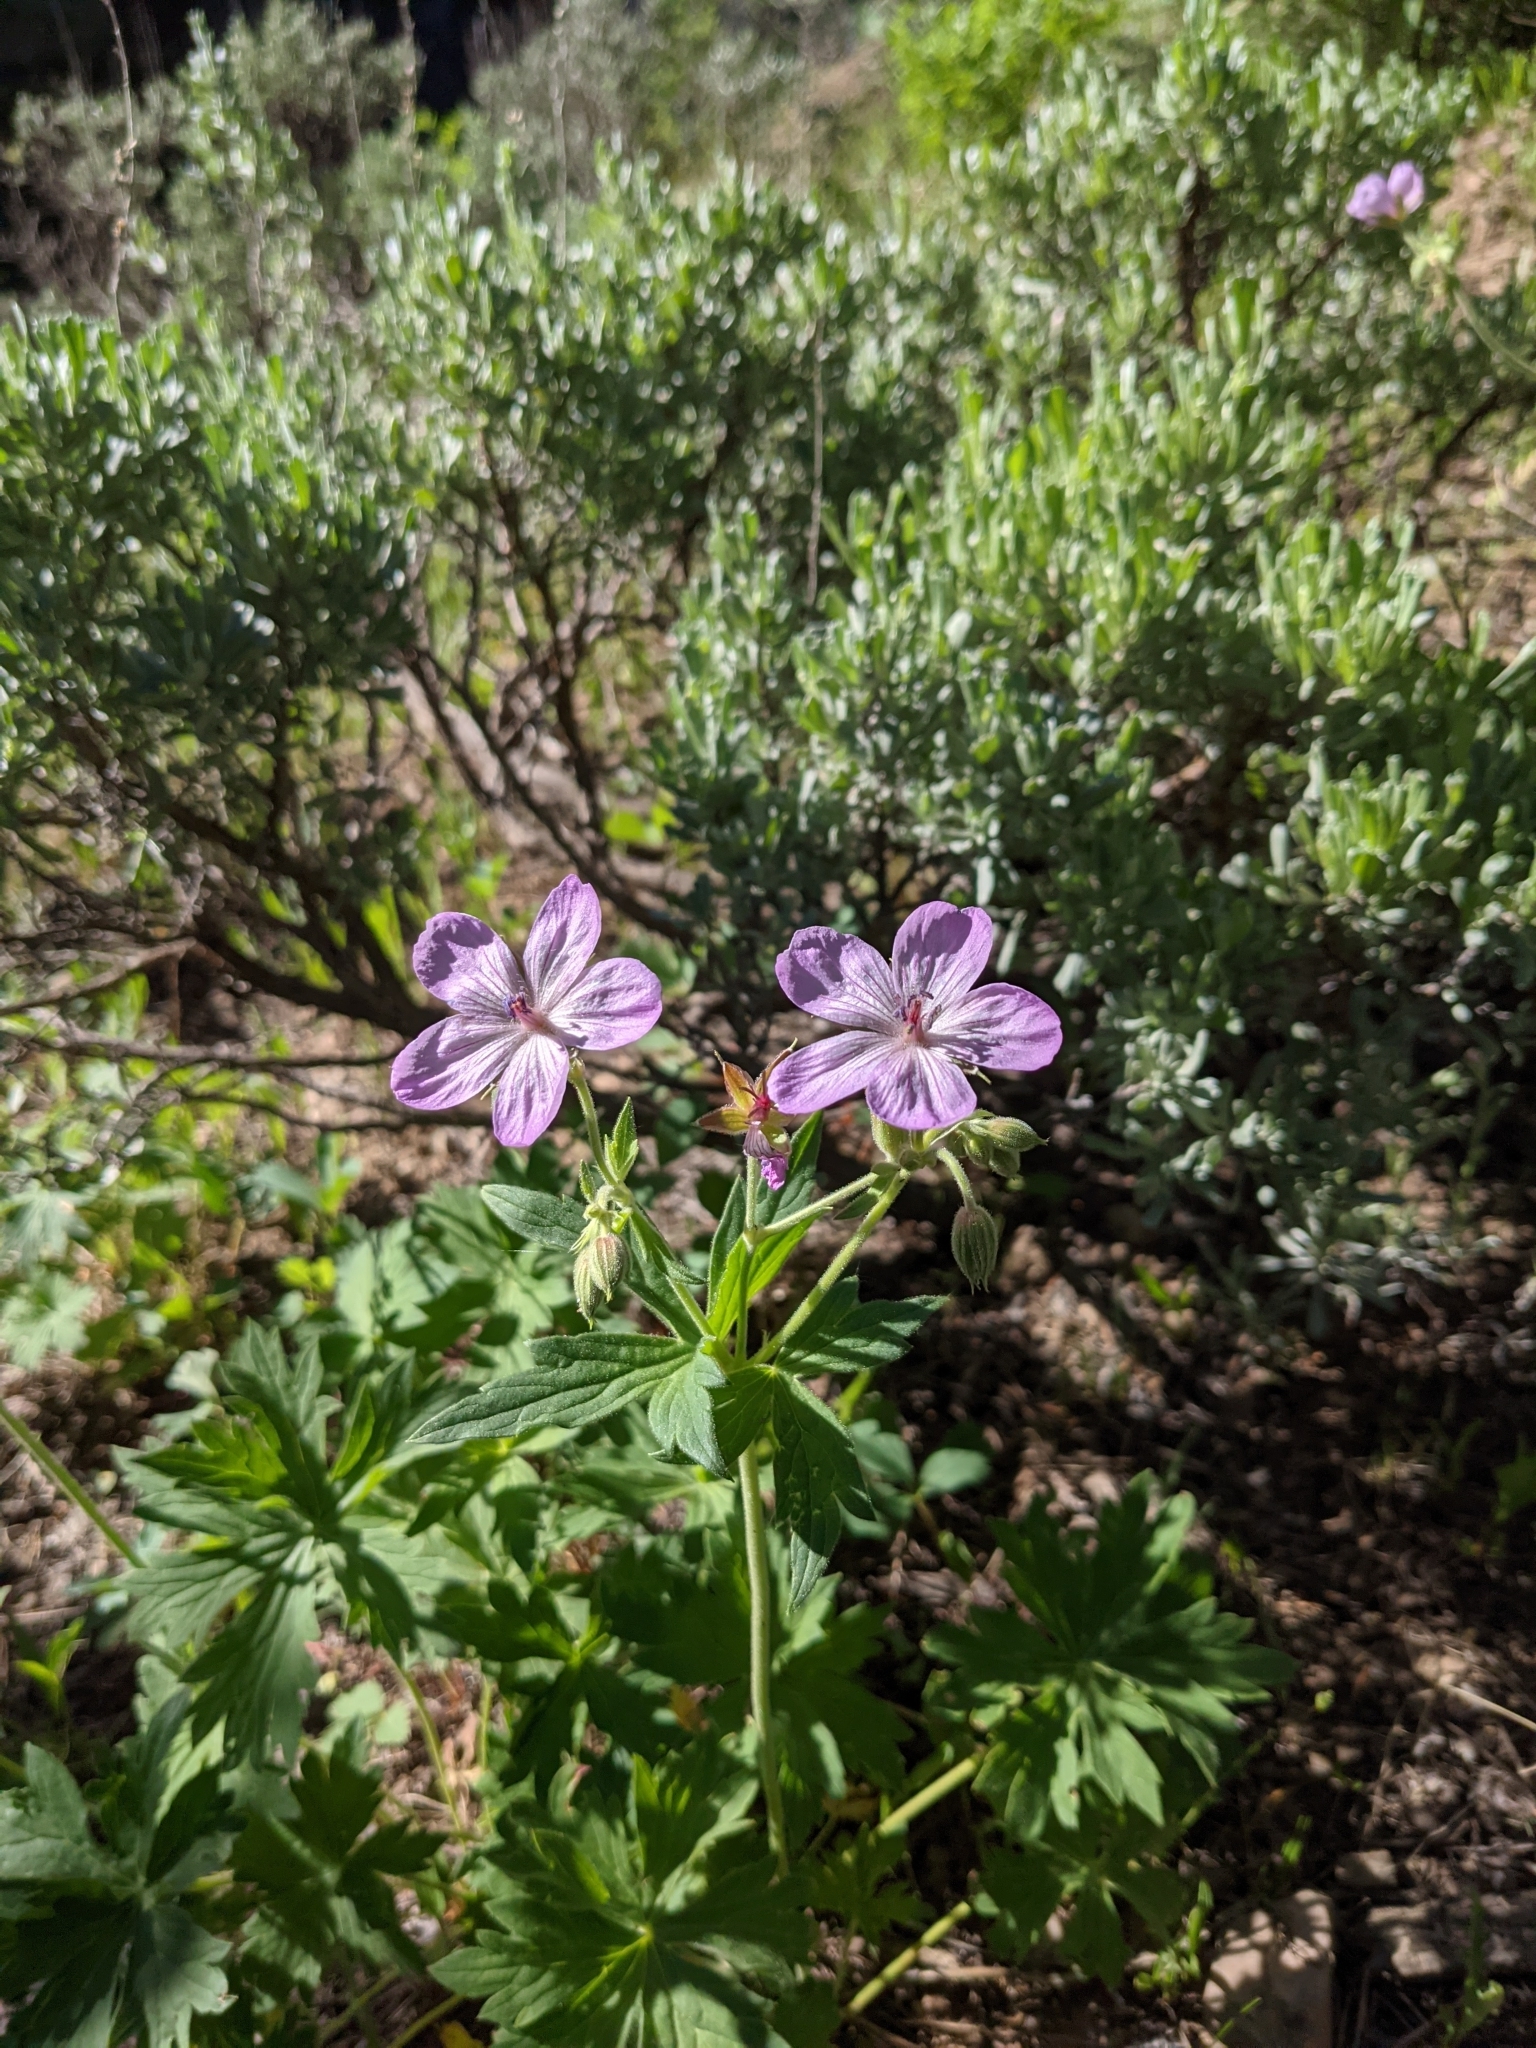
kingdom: Plantae
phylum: Tracheophyta
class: Magnoliopsida
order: Geraniales
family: Geraniaceae
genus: Geranium
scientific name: Geranium viscosissimum
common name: Purple geranium
